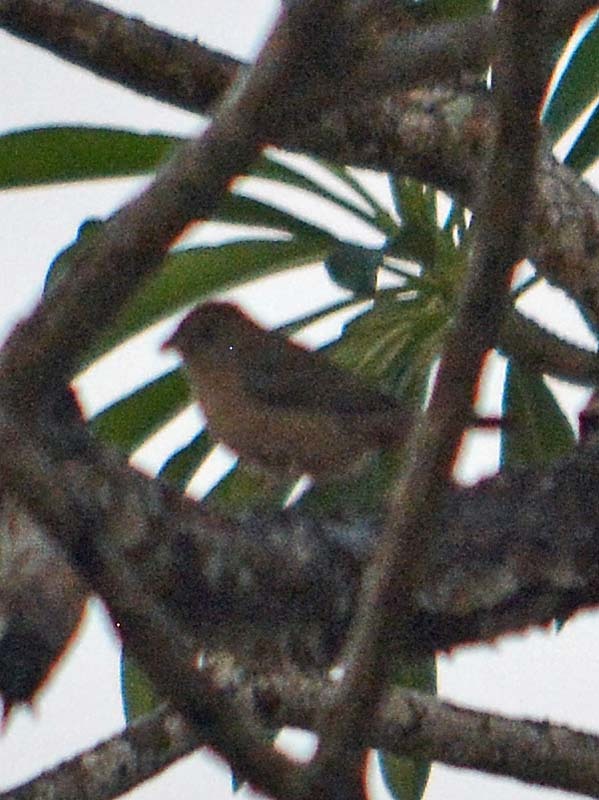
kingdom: Animalia
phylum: Chordata
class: Aves
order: Passeriformes
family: Thraupidae
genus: Sporophila
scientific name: Sporophila torqueola
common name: White-collared seedeater
